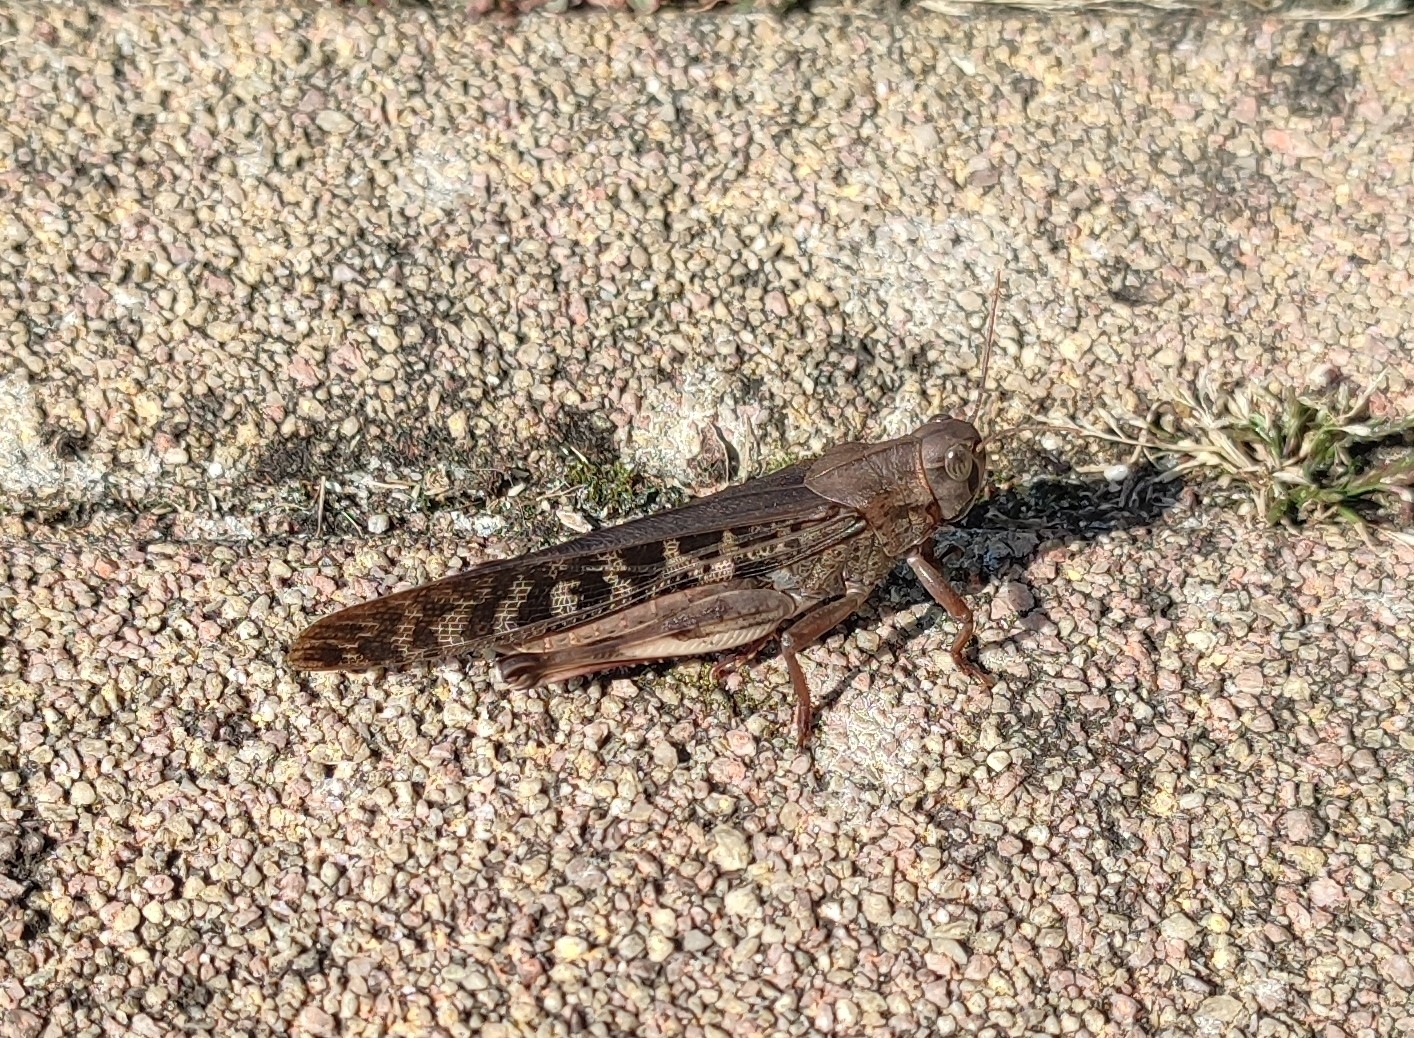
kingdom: Animalia
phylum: Arthropoda
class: Insecta
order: Orthoptera
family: Acrididae
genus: Locusta
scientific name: Locusta migratoria
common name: Migratory locust
